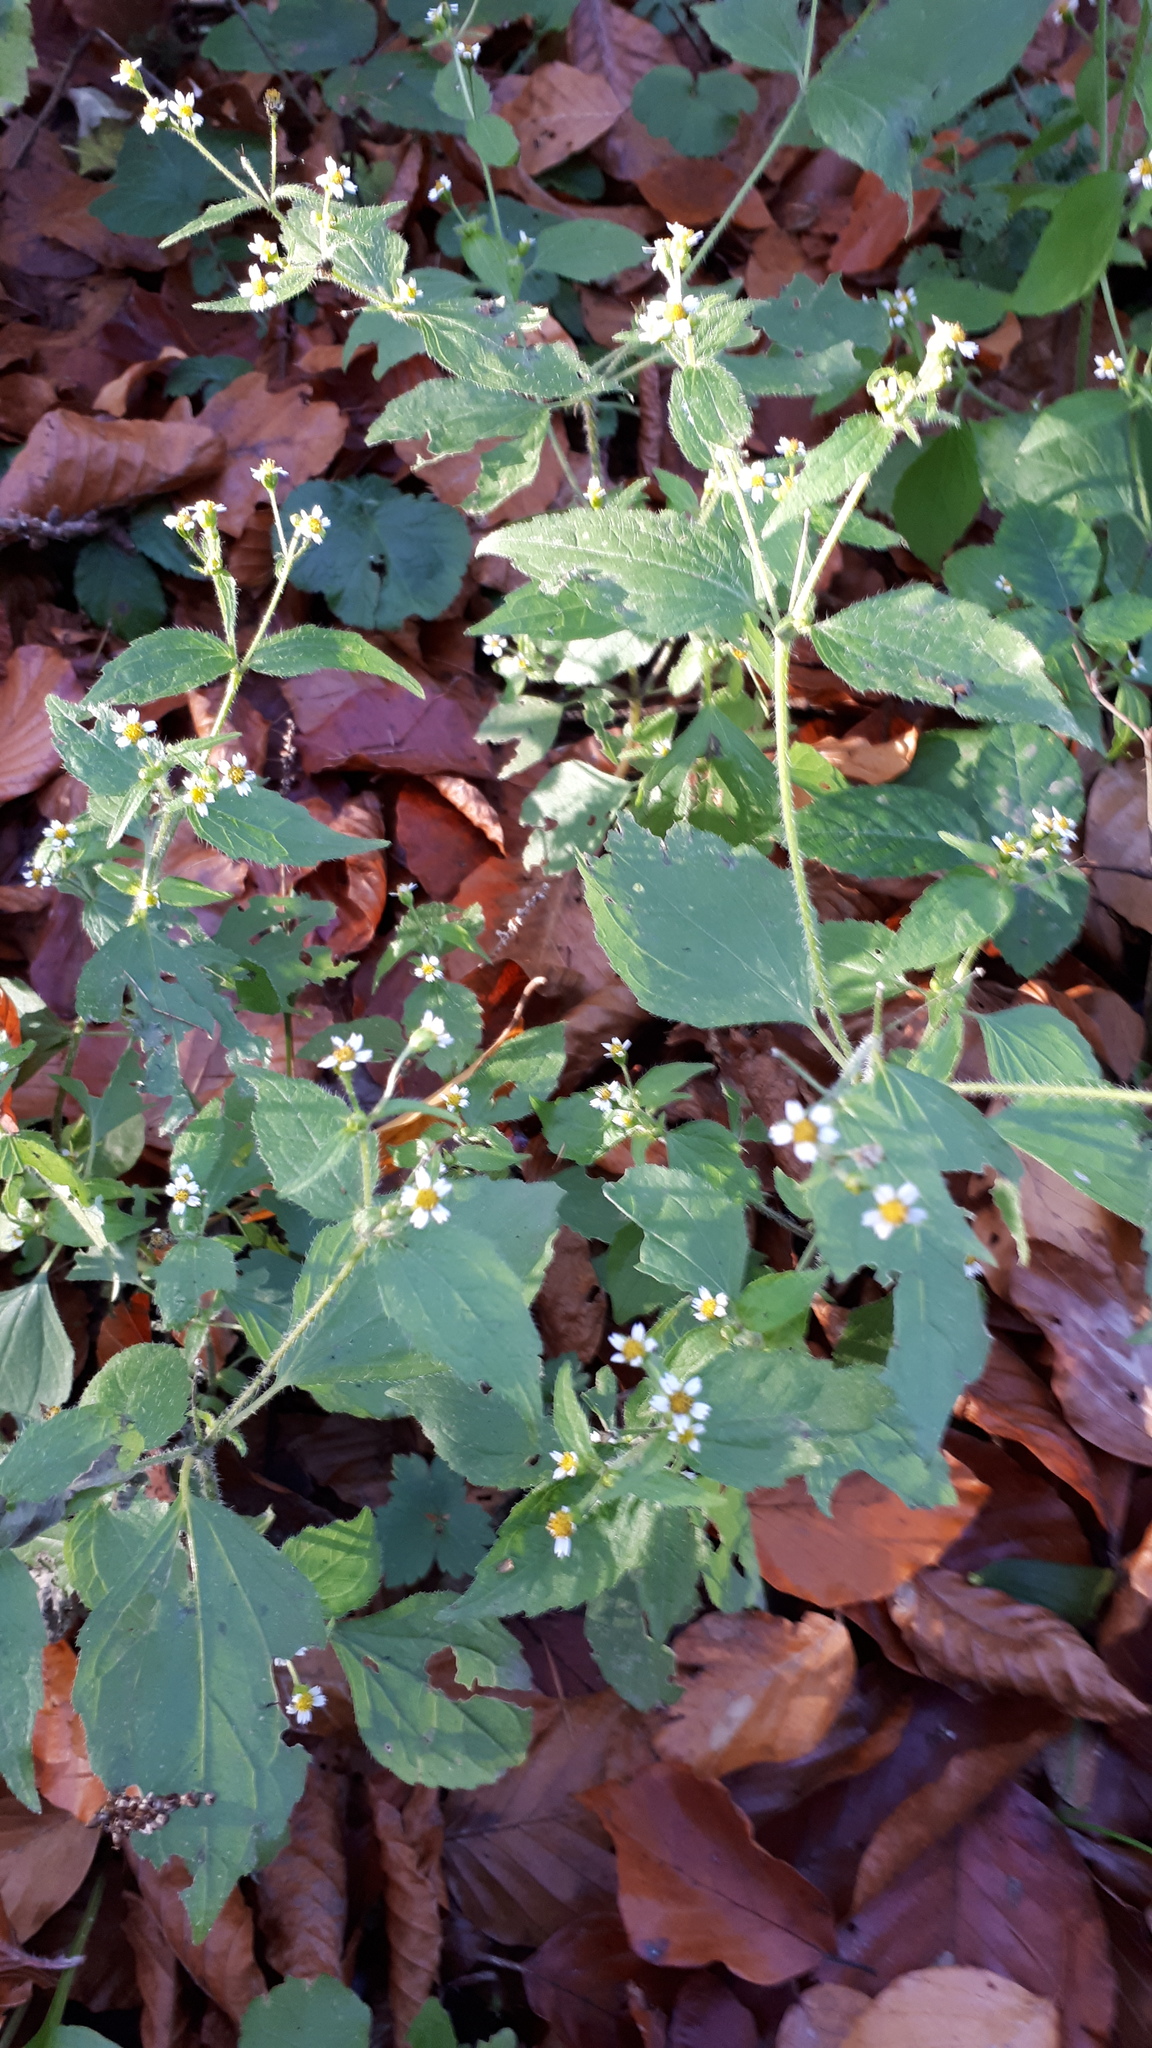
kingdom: Plantae
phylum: Tracheophyta
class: Magnoliopsida
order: Asterales
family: Asteraceae
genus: Galinsoga
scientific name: Galinsoga quadriradiata
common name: Shaggy soldier
